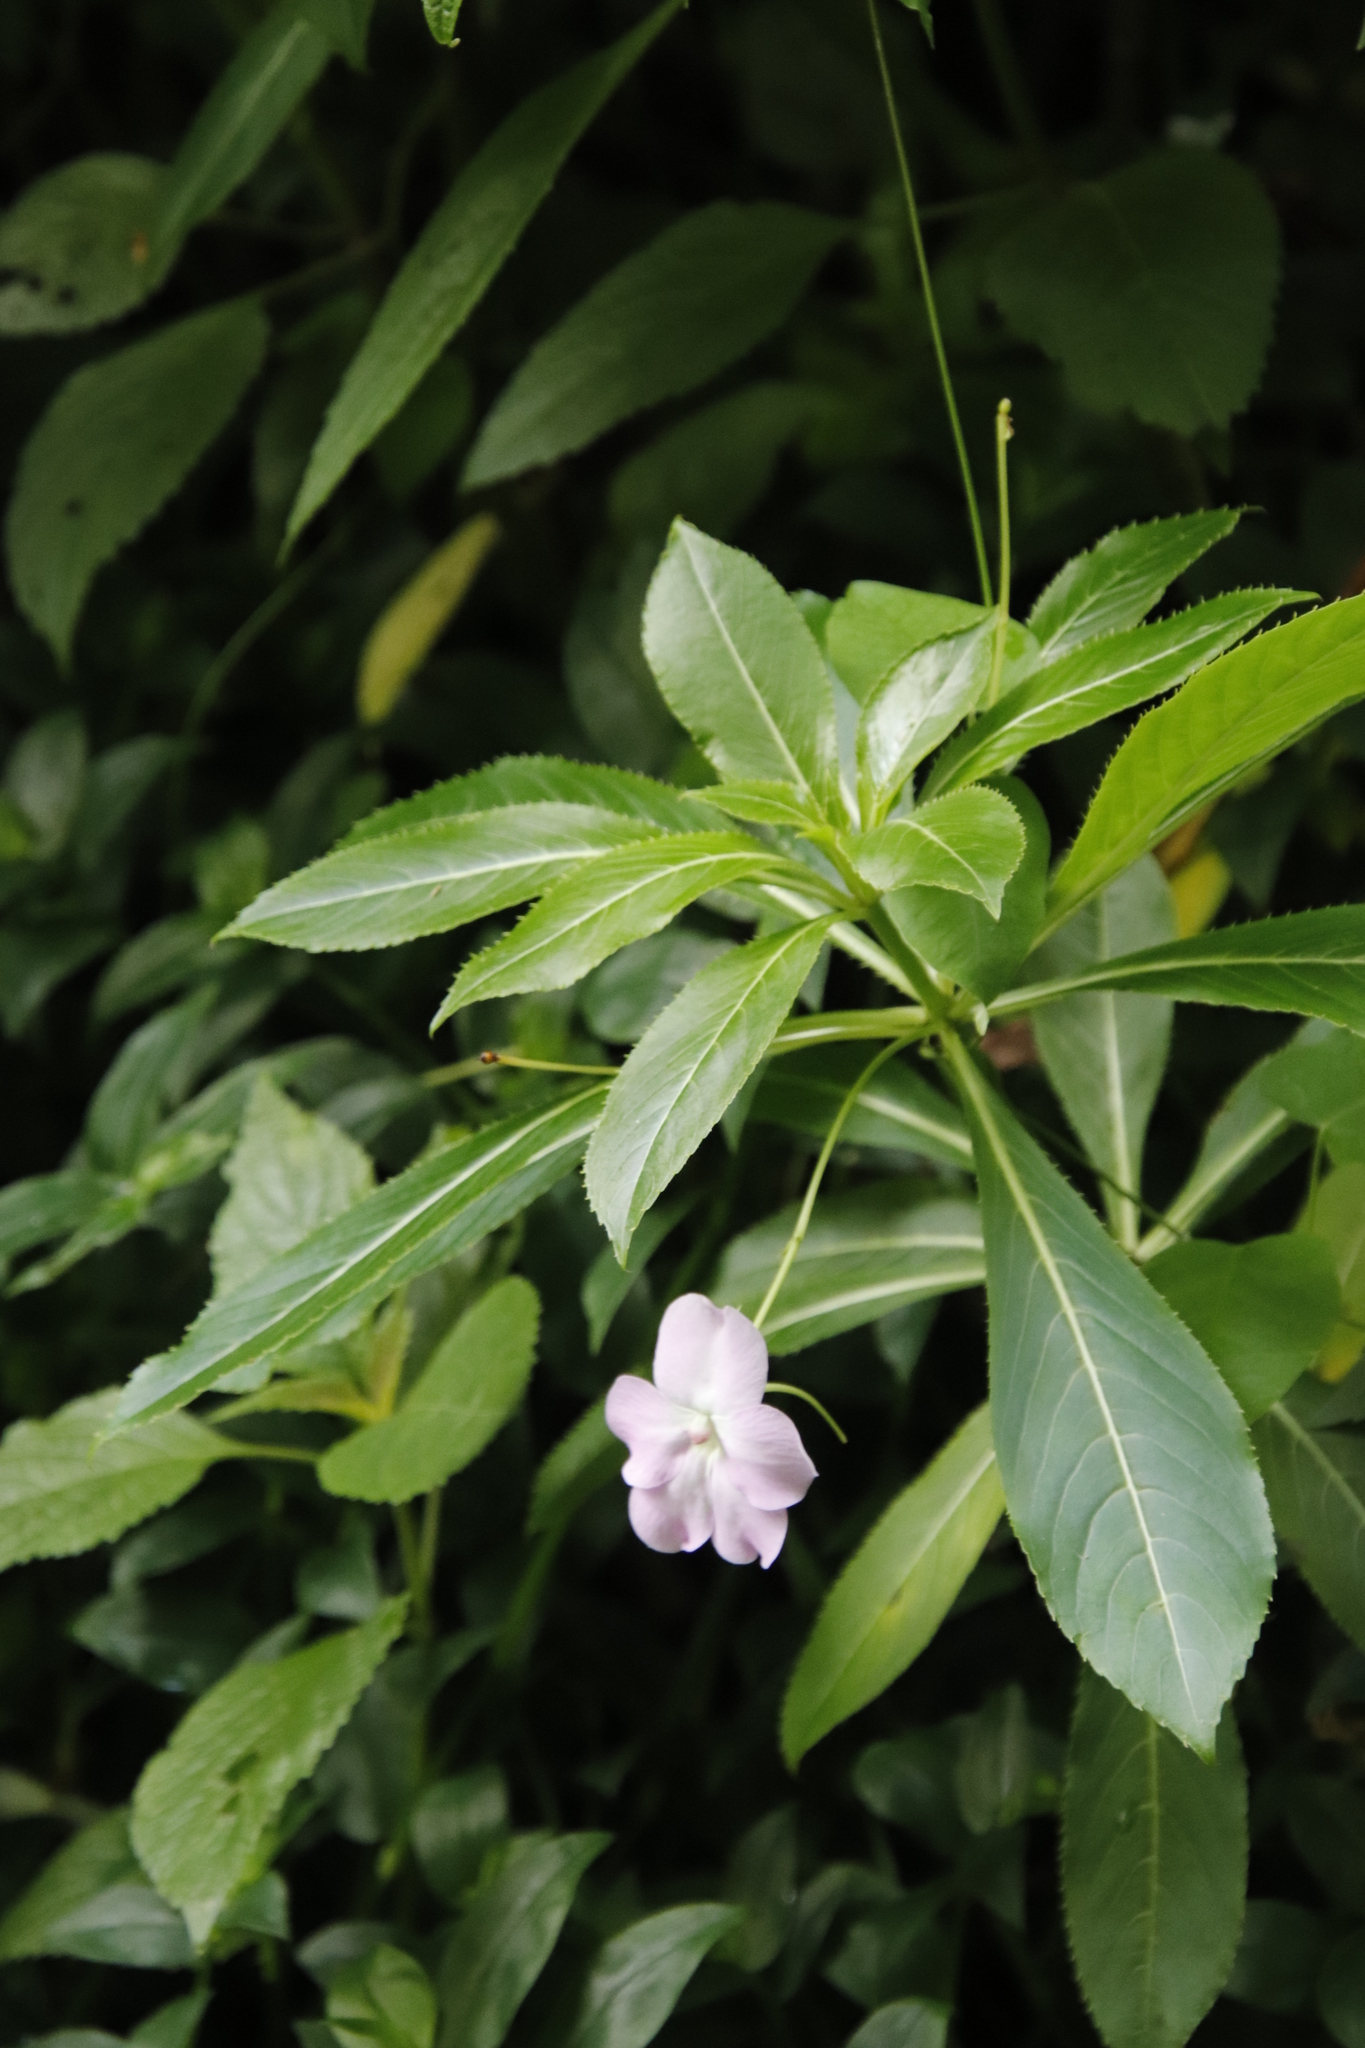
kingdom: Plantae
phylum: Tracheophyta
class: Magnoliopsida
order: Ericales
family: Balsaminaceae
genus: Impatiens
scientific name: Impatiens sodenii
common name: Oliver's touch-me-not
